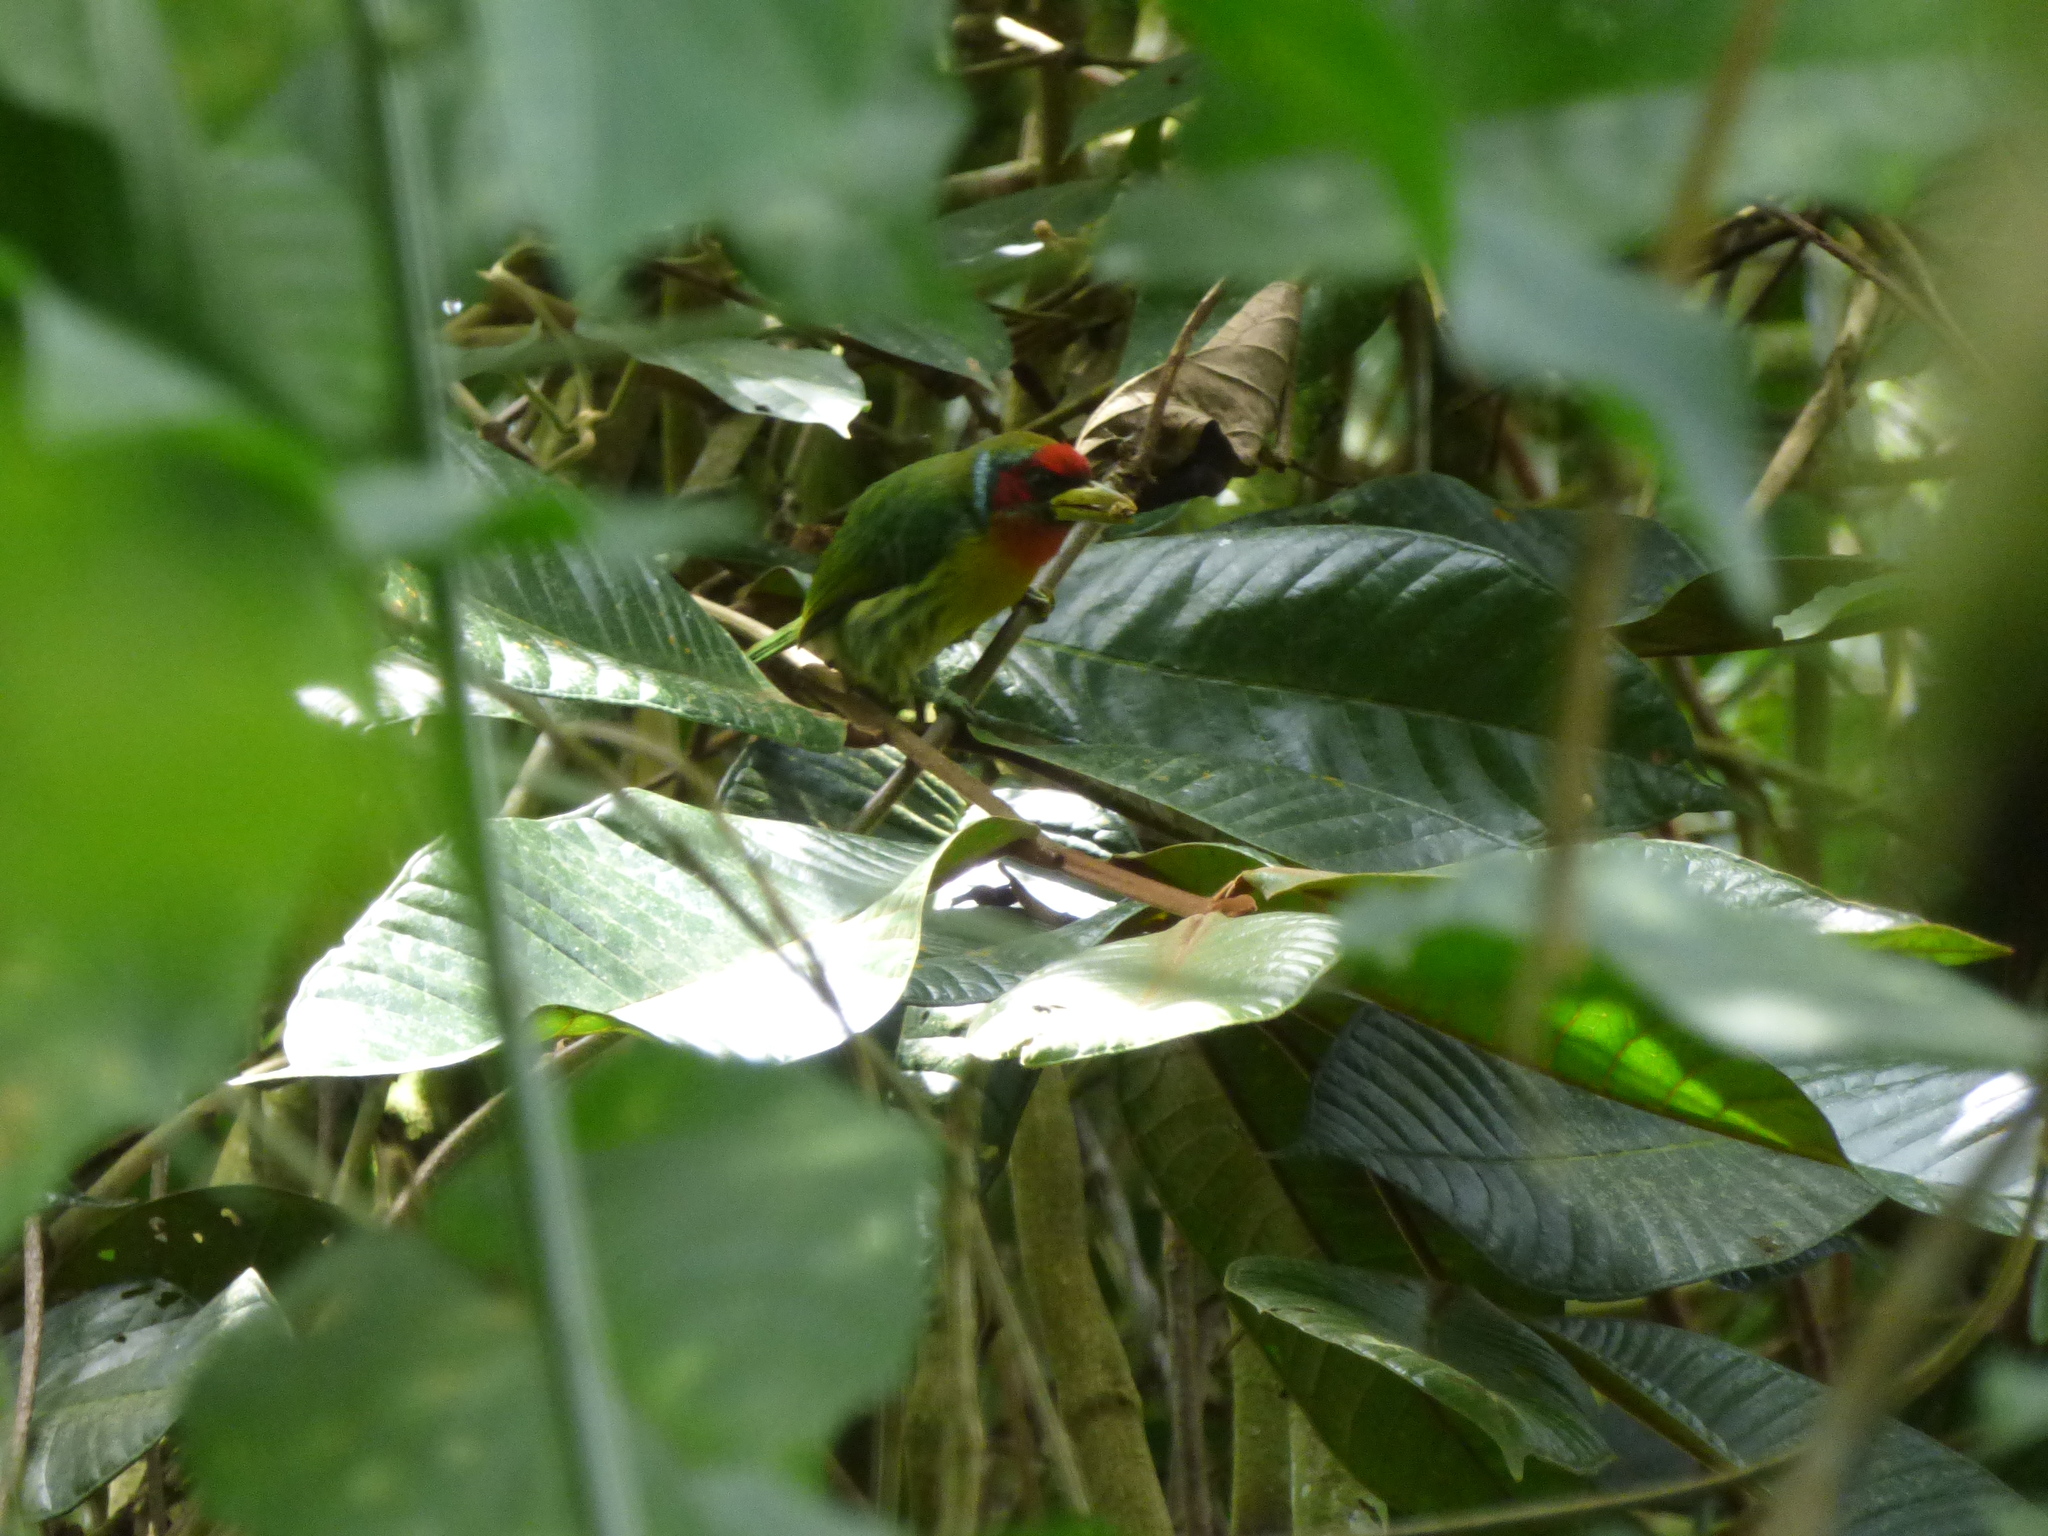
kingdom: Animalia
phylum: Chordata
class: Aves
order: Piciformes
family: Capitonidae
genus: Eubucco
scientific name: Eubucco bourcierii
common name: Red-headed barbet
